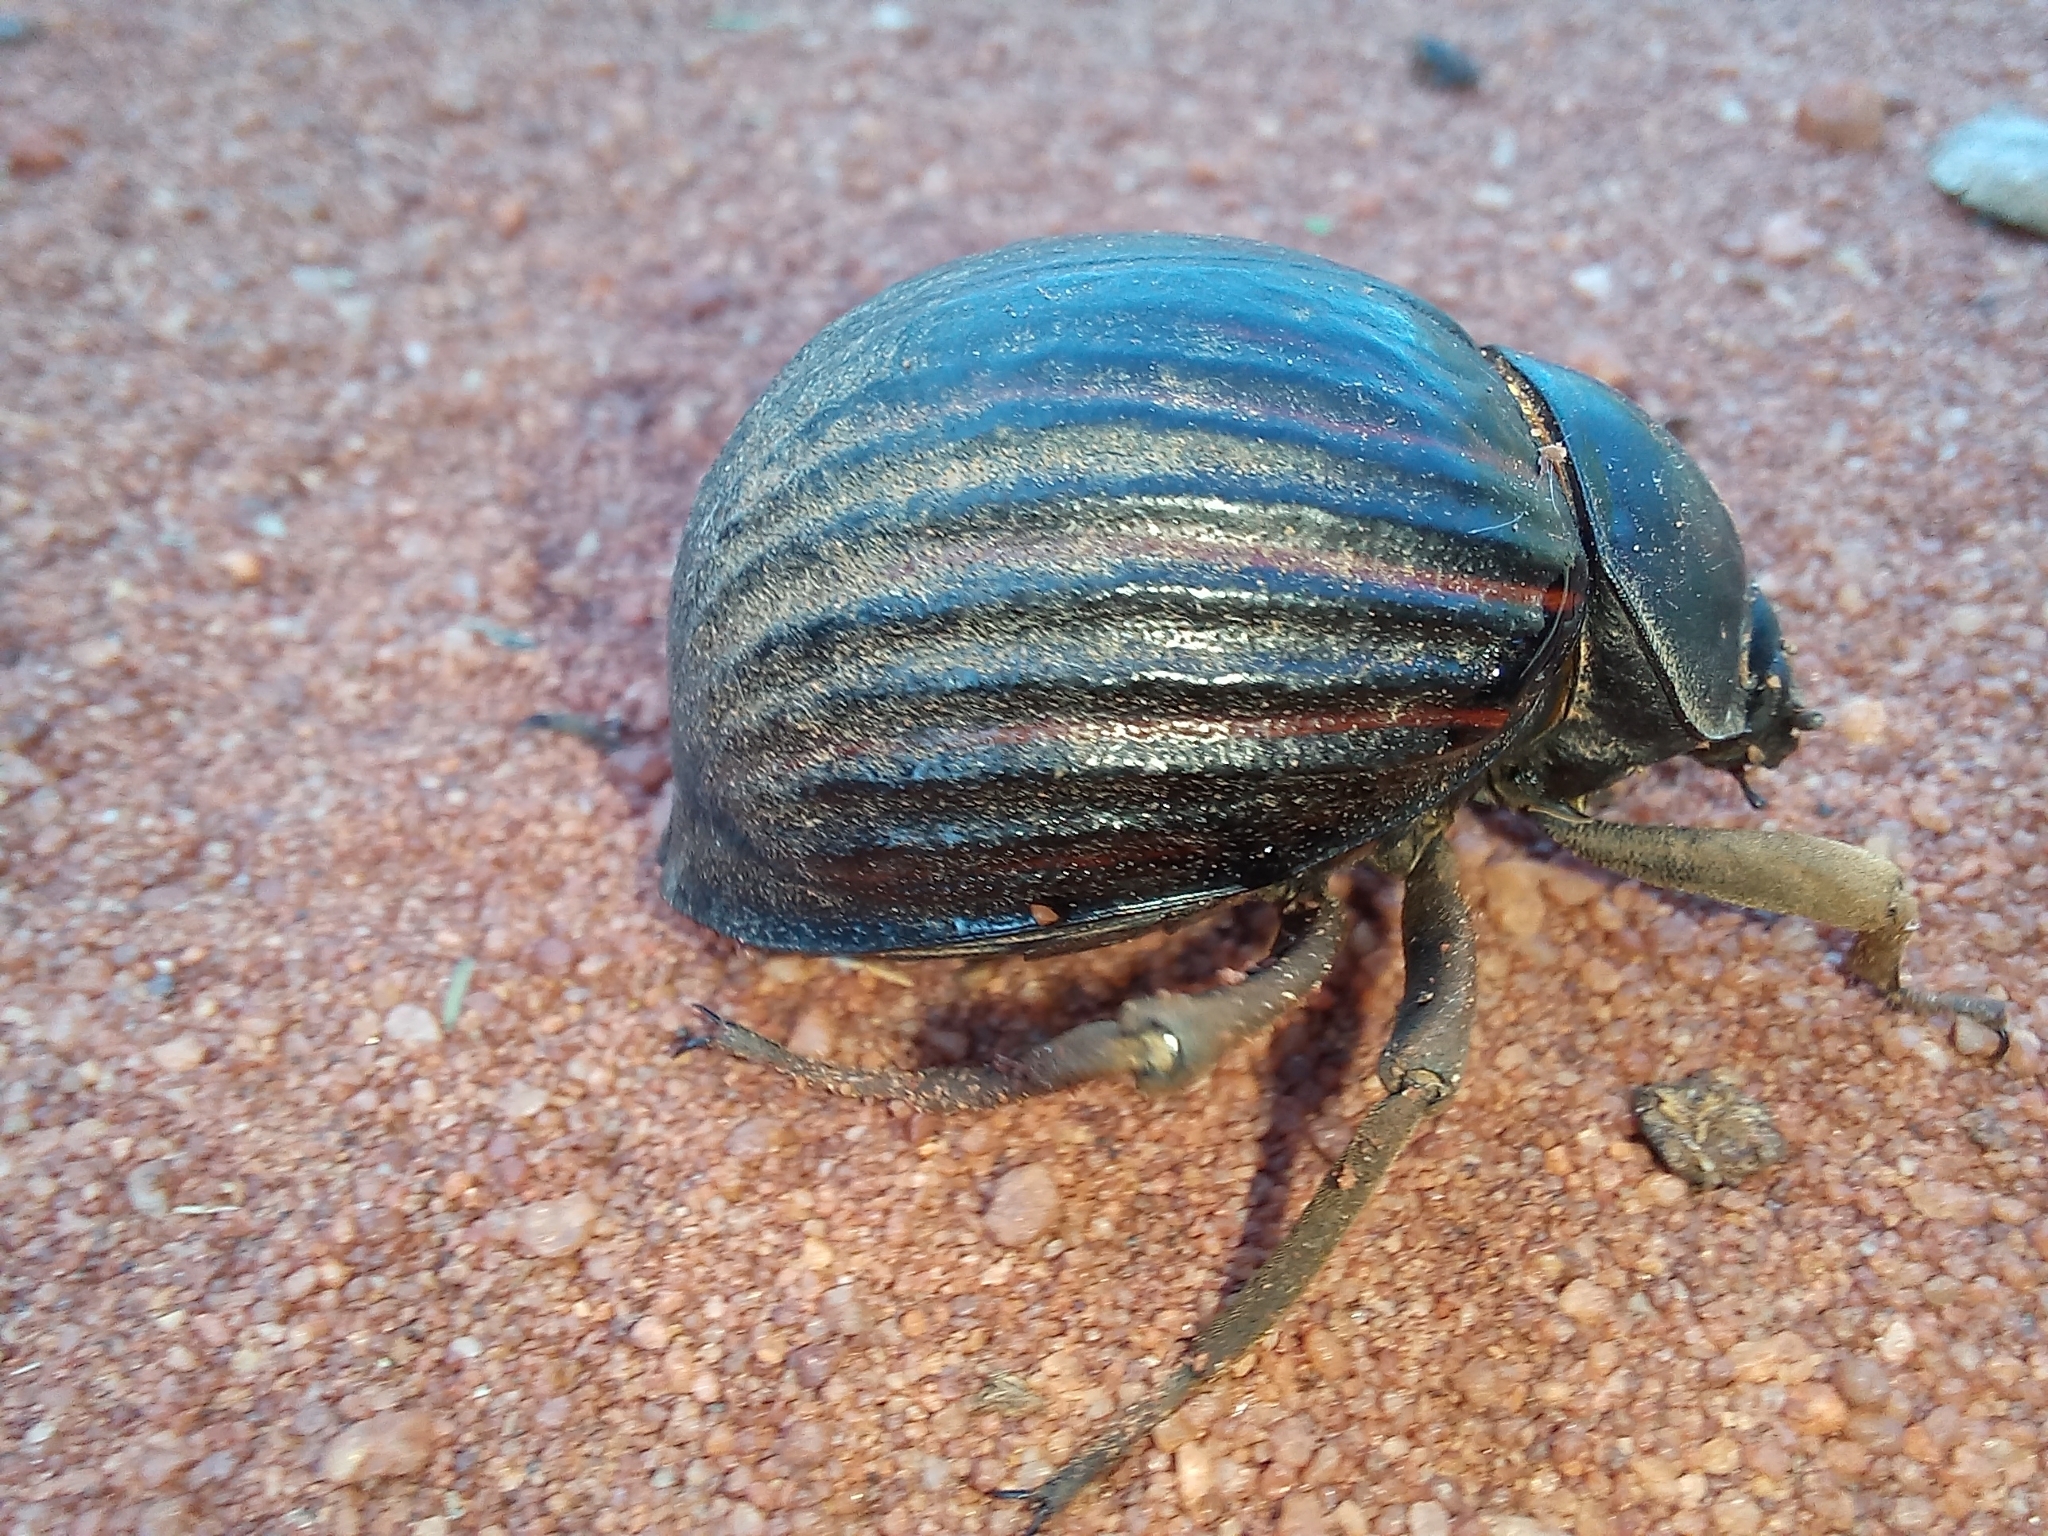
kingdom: Animalia
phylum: Arthropoda
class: Insecta
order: Coleoptera
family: Tenebrionidae
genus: Mariazofia
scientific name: Mariazofia
